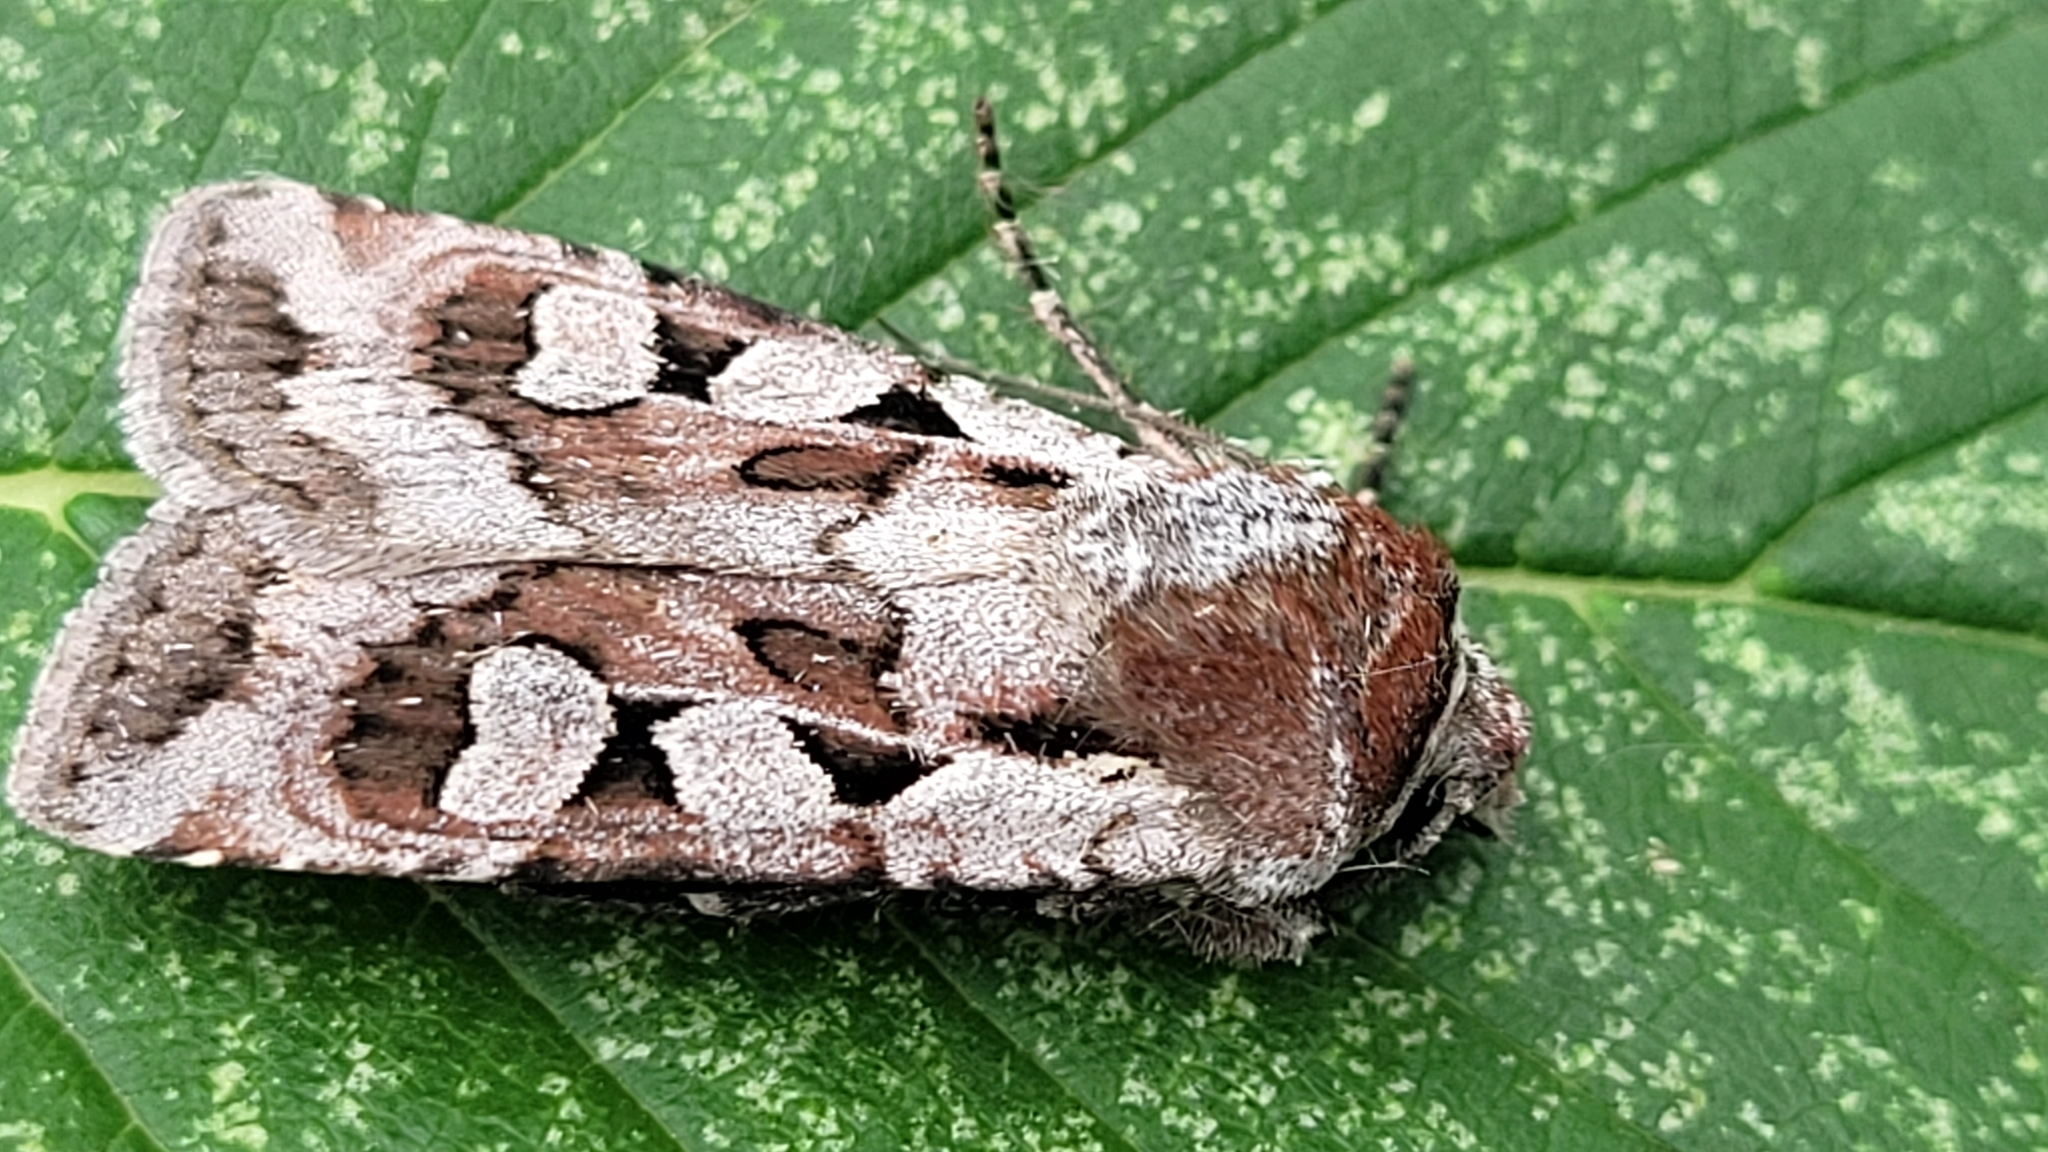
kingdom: Animalia
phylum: Arthropoda
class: Insecta
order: Lepidoptera
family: Noctuidae
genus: Euxoa
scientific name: Euxoa auripennis
